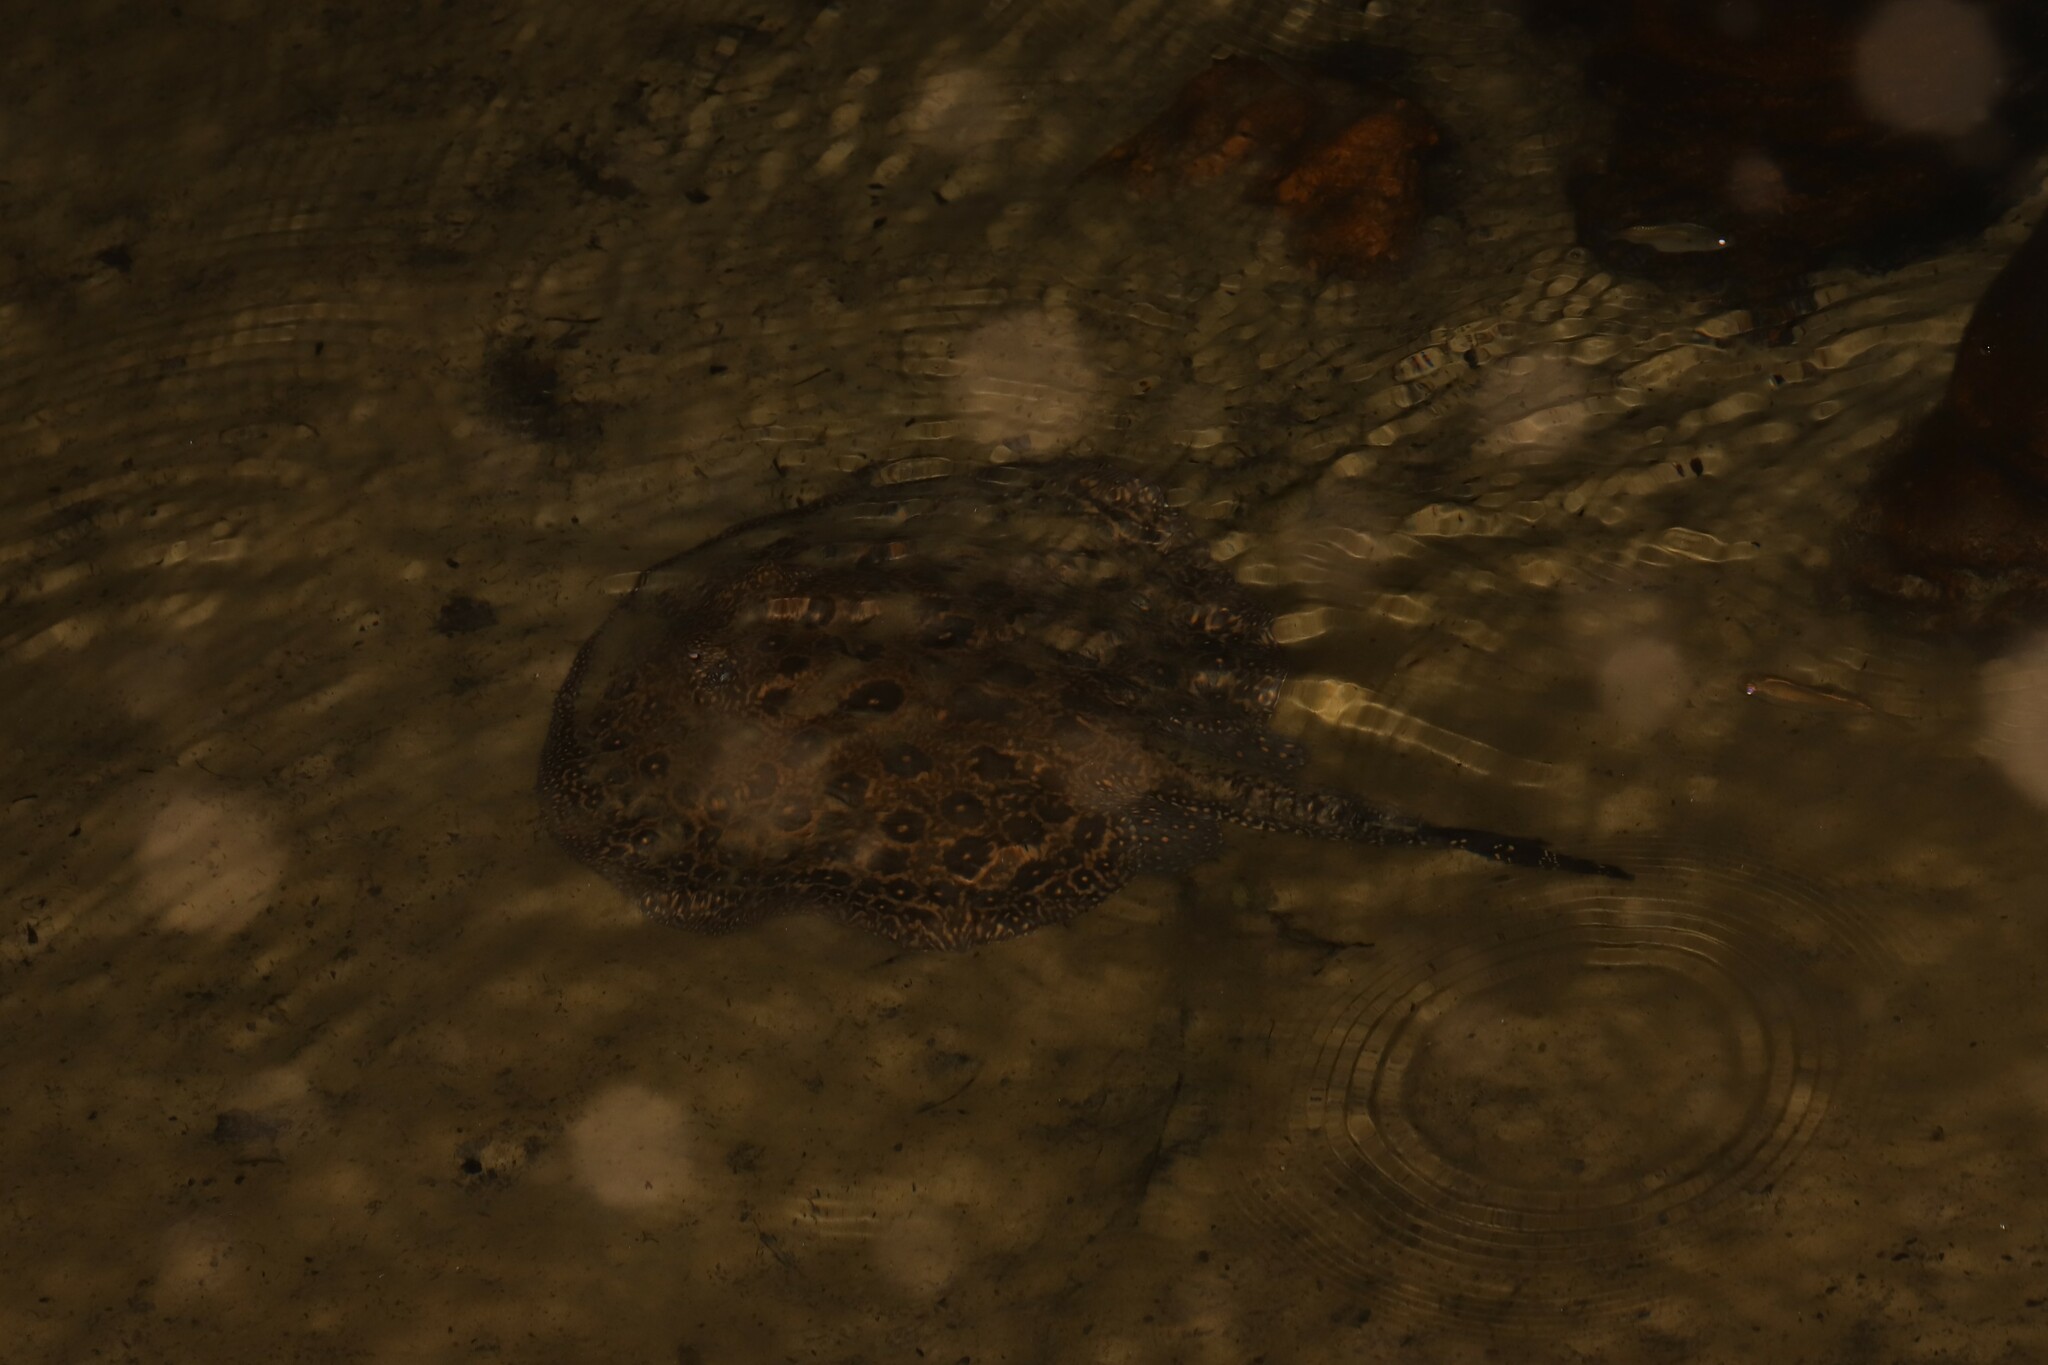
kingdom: Animalia
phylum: Chordata
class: Elasmobranchii
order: Myliobatiformes
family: Potamotrygonidae
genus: Potamotrygon
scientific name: Potamotrygon jabuti
